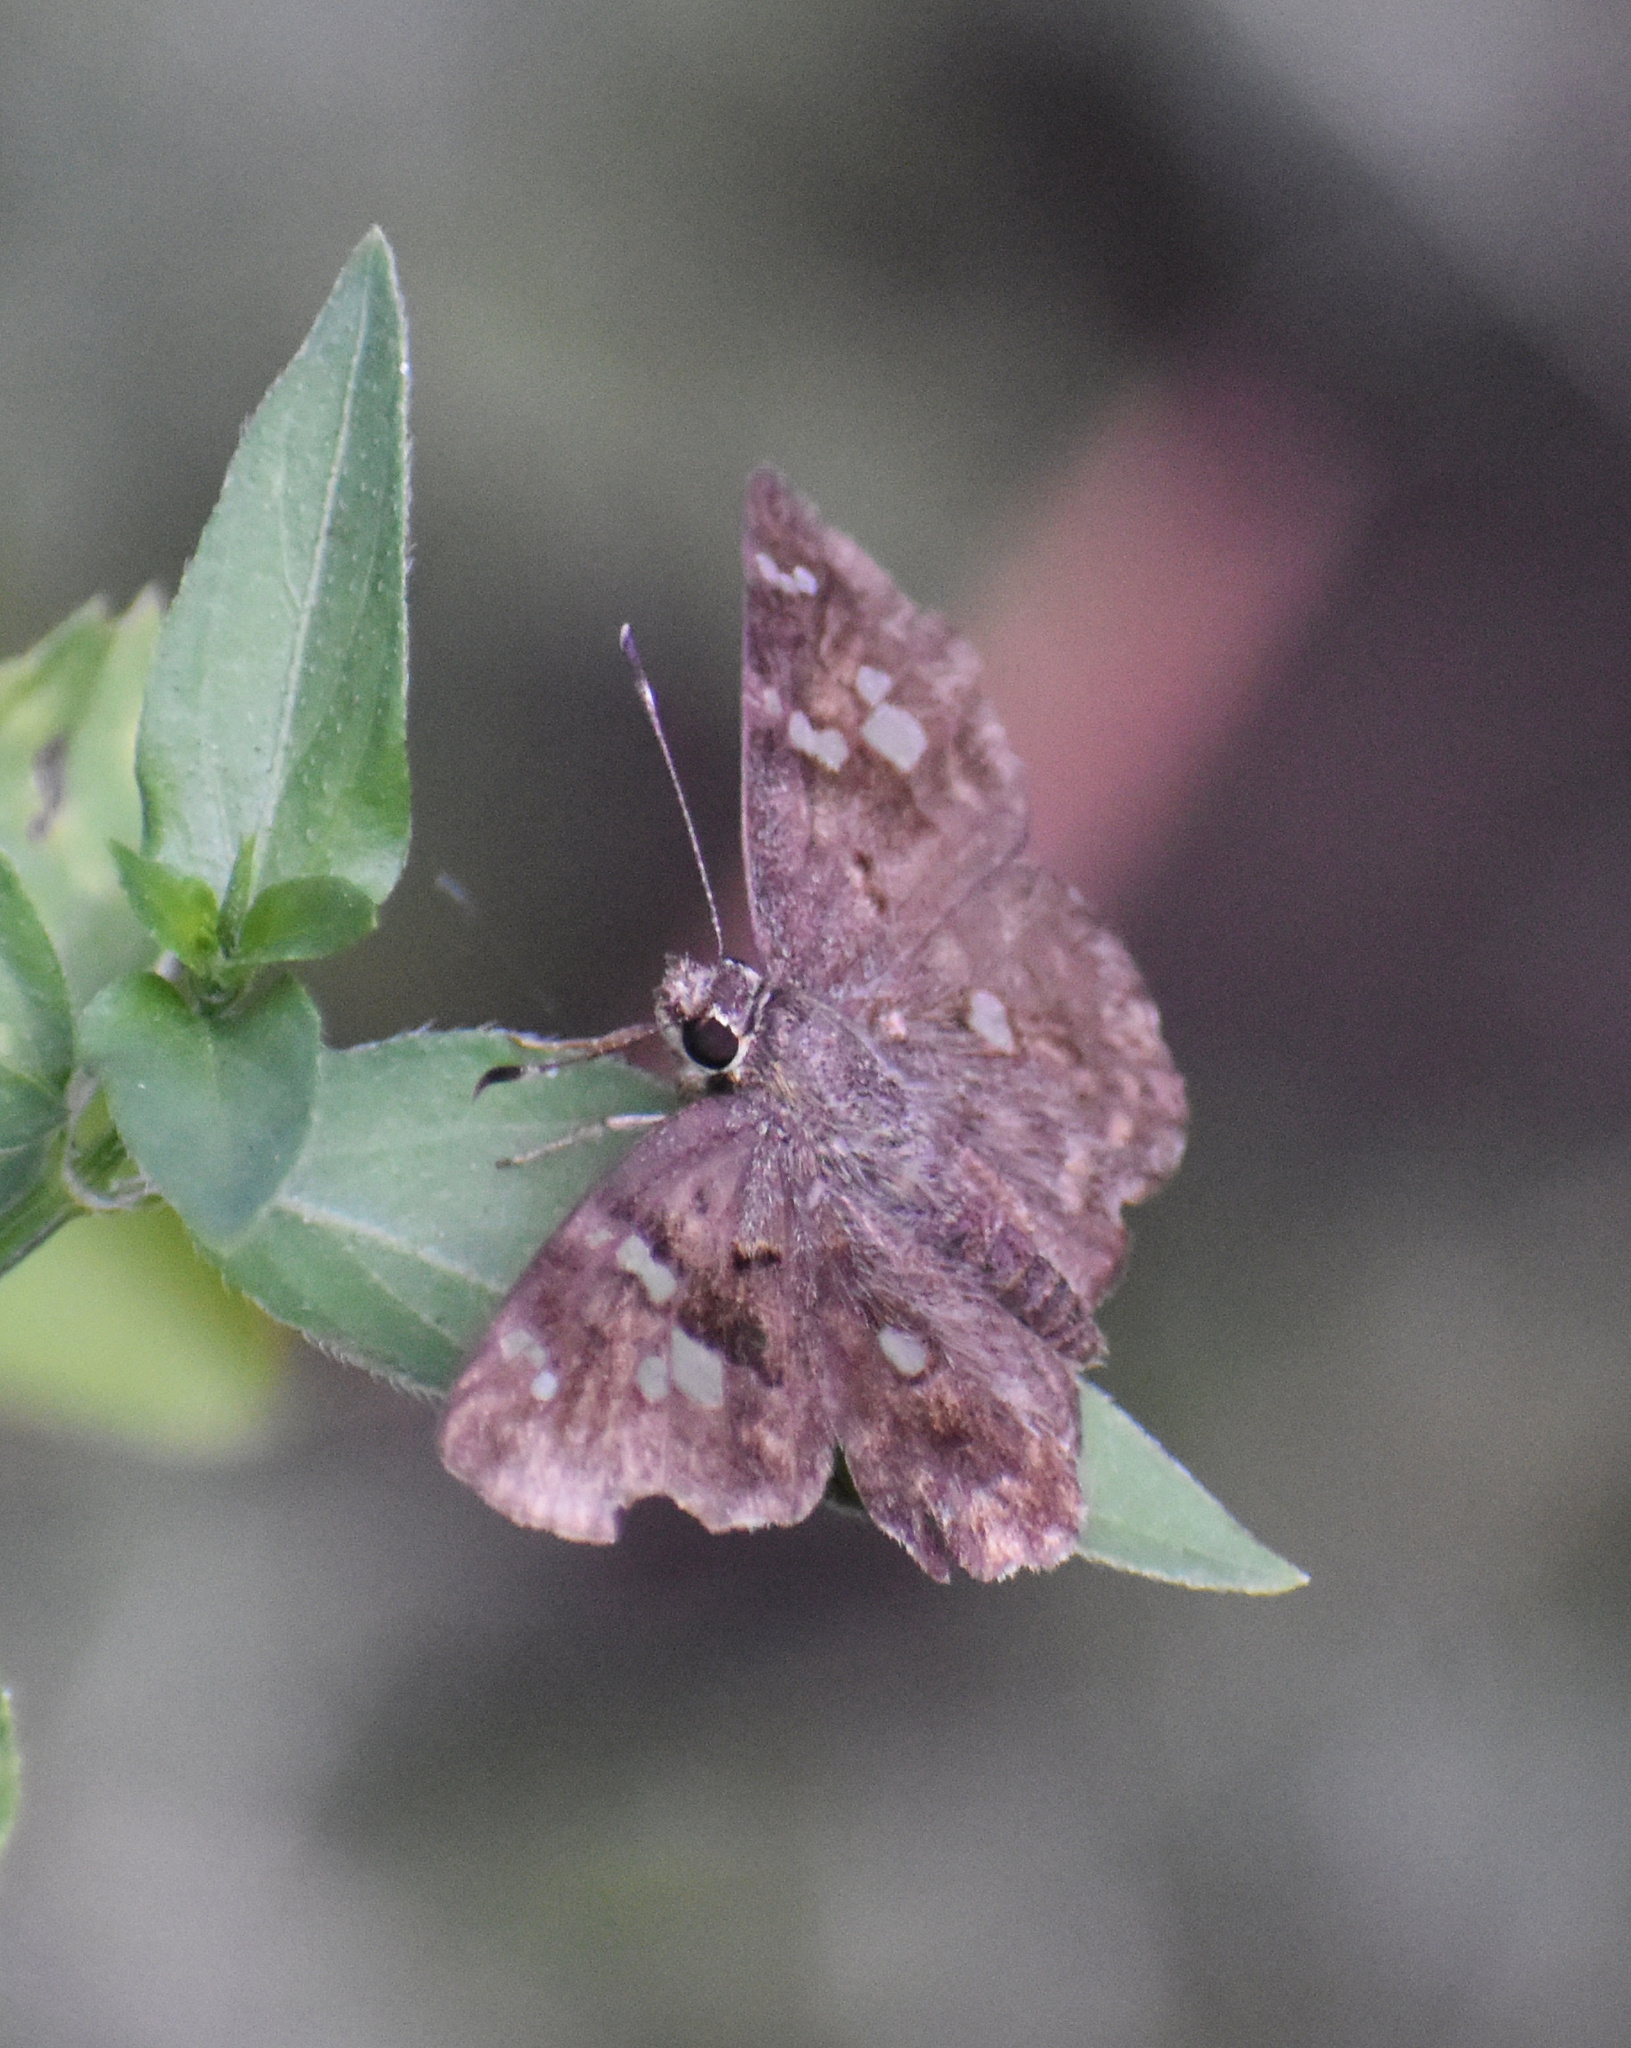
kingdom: Animalia
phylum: Arthropoda
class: Insecta
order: Lepidoptera
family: Hesperiidae
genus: Sarangesa
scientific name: Sarangesa motozi
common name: Forest elfin
